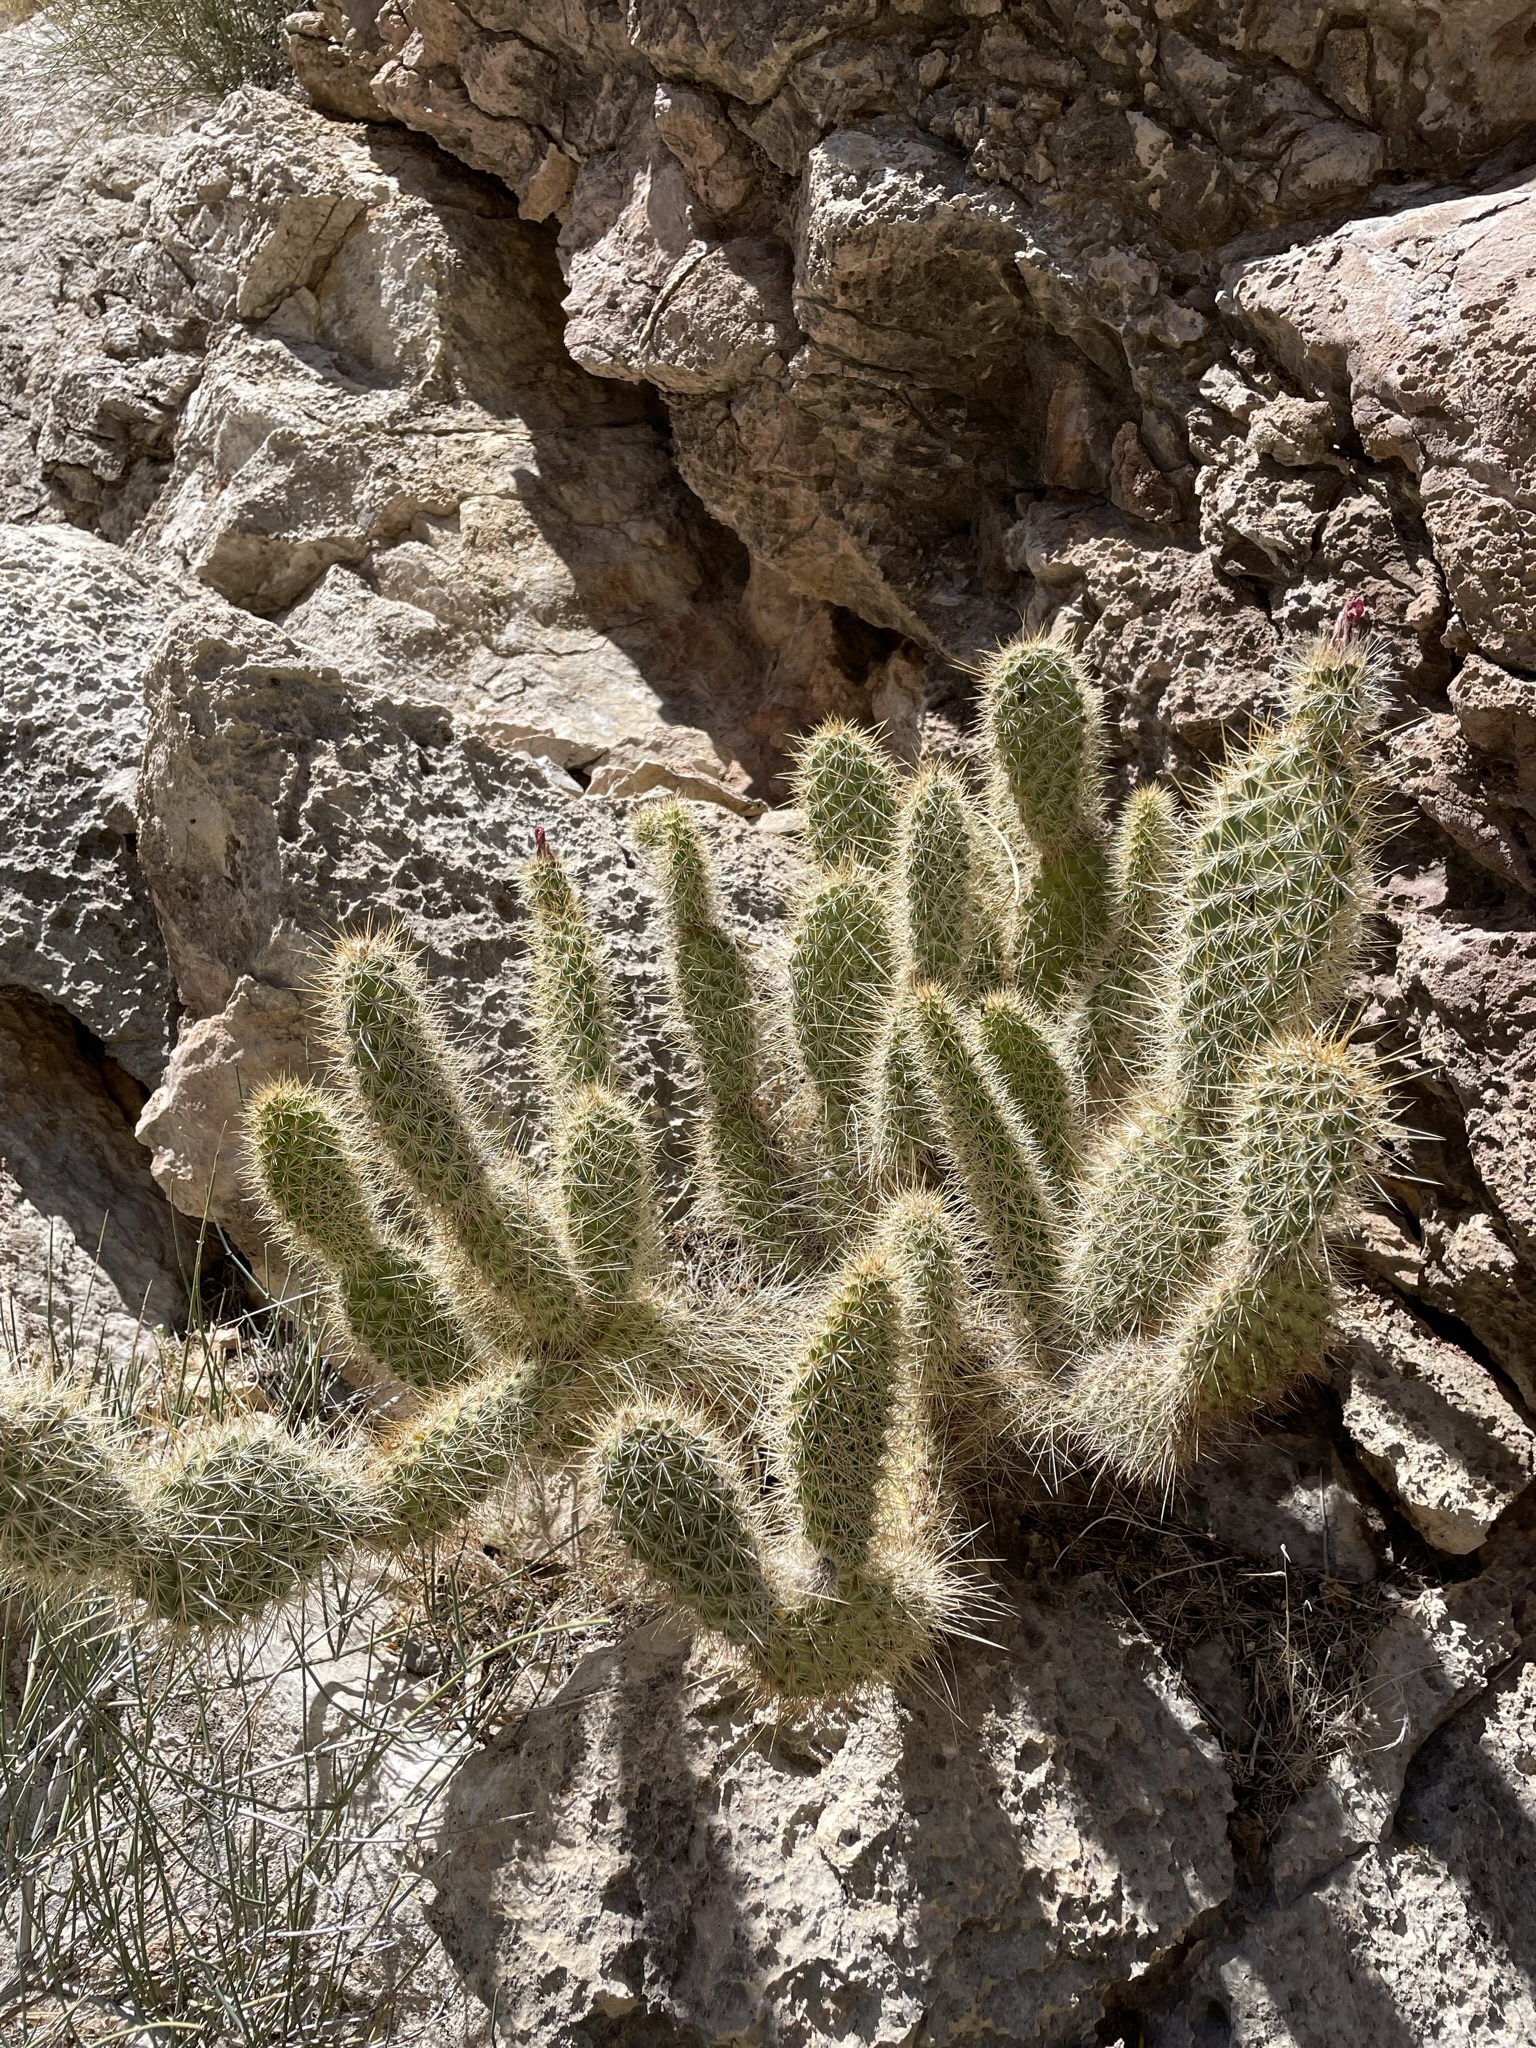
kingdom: Plantae
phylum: Tracheophyta
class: Magnoliopsida
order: Caryophyllales
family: Cactaceae
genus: Opuntia
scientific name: Opuntia polyacantha
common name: Plains prickly-pear
